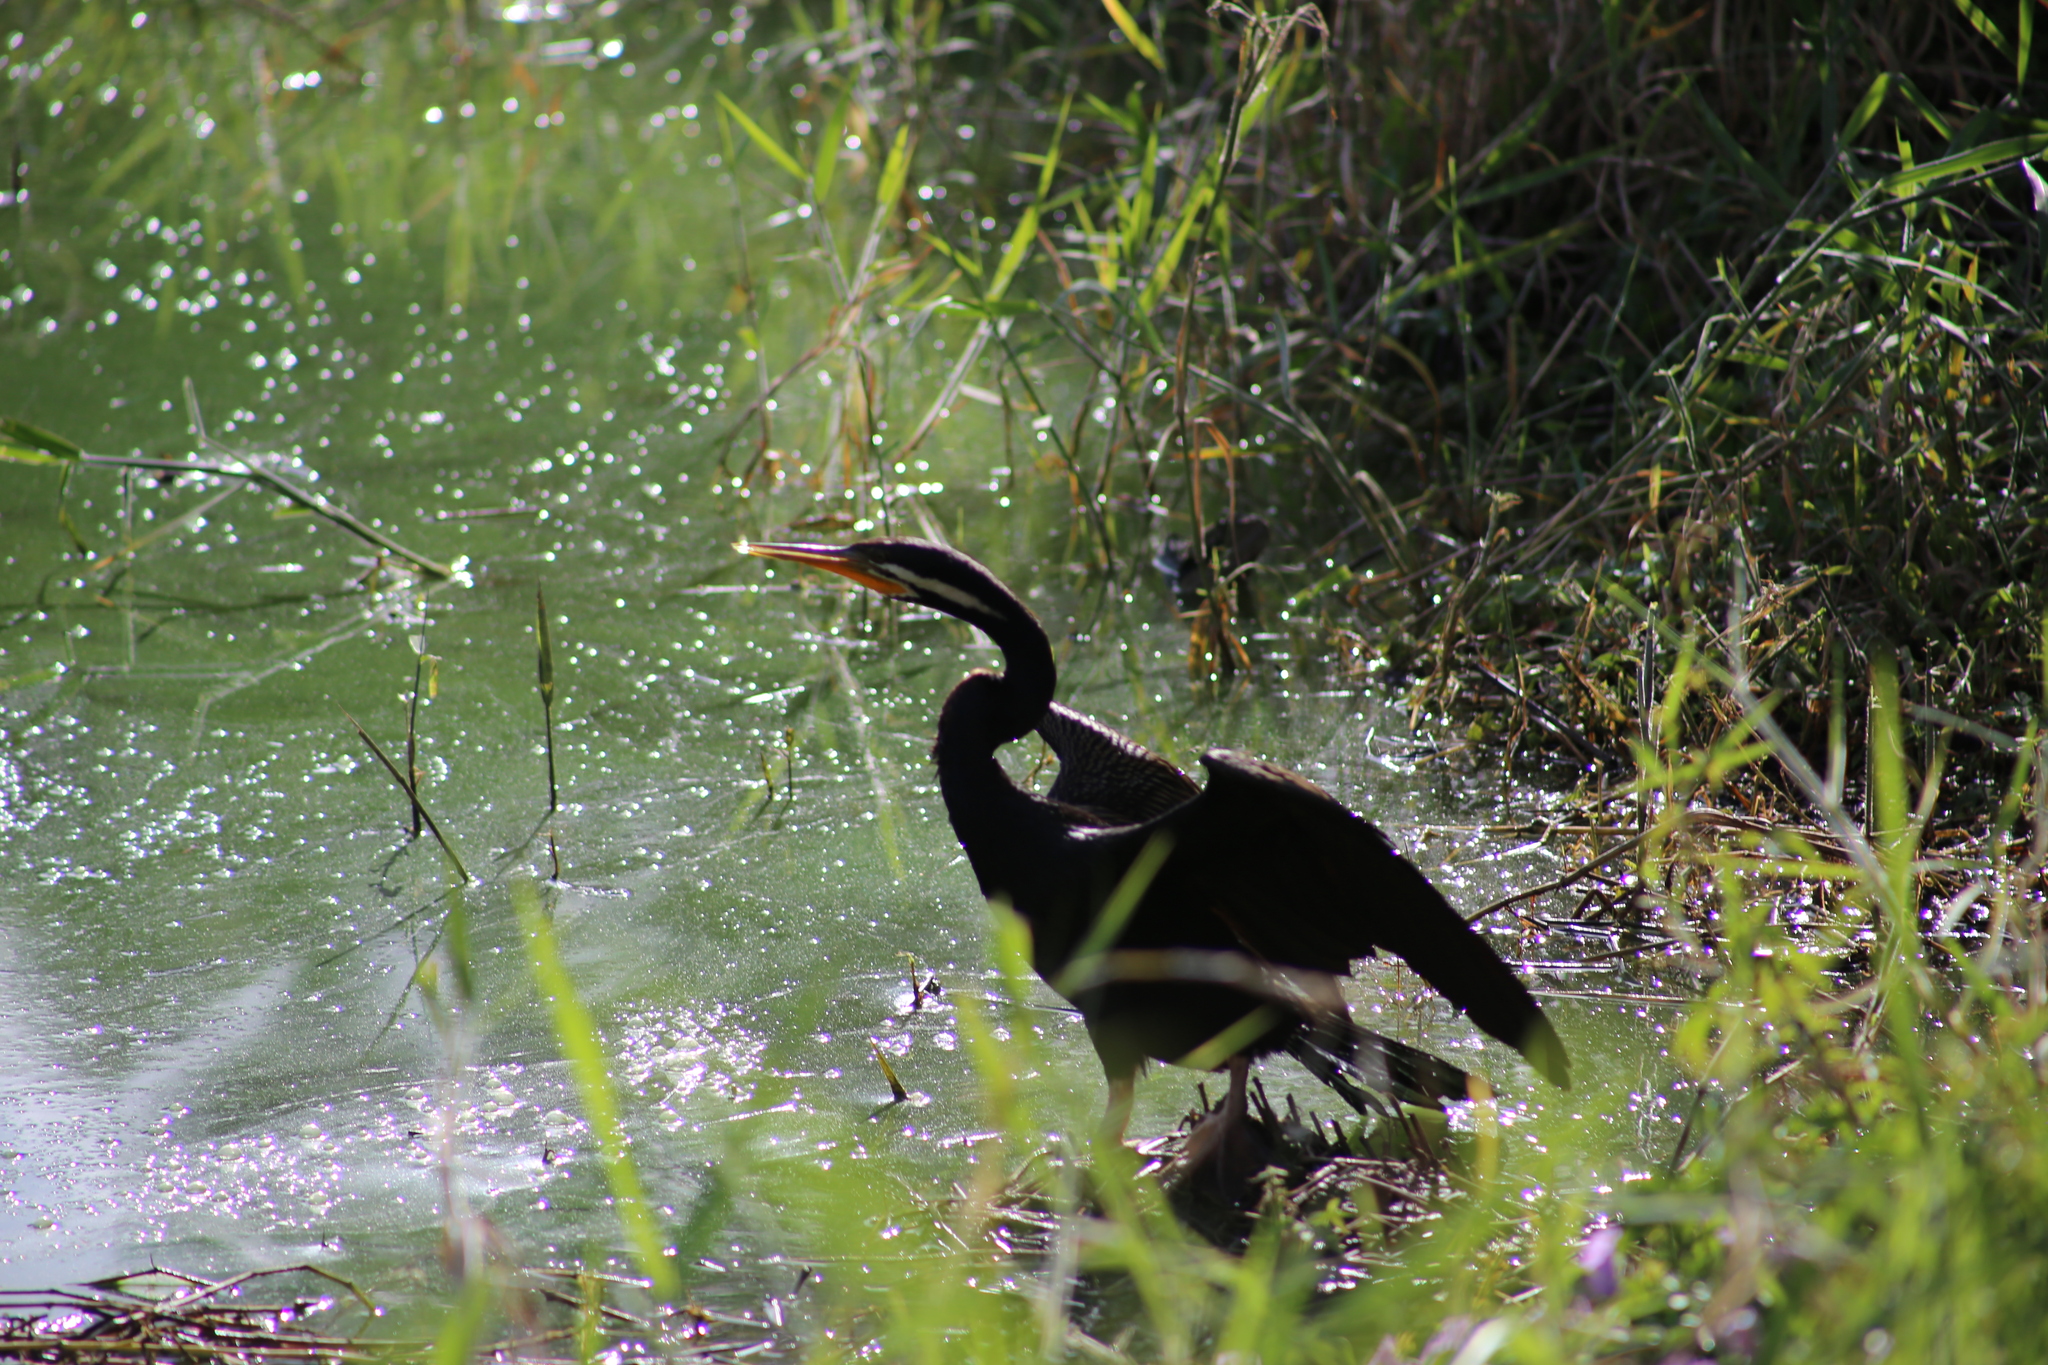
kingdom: Animalia
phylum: Chordata
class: Aves
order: Suliformes
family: Anhingidae
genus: Anhinga
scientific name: Anhinga novaehollandiae
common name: Australasian darter
